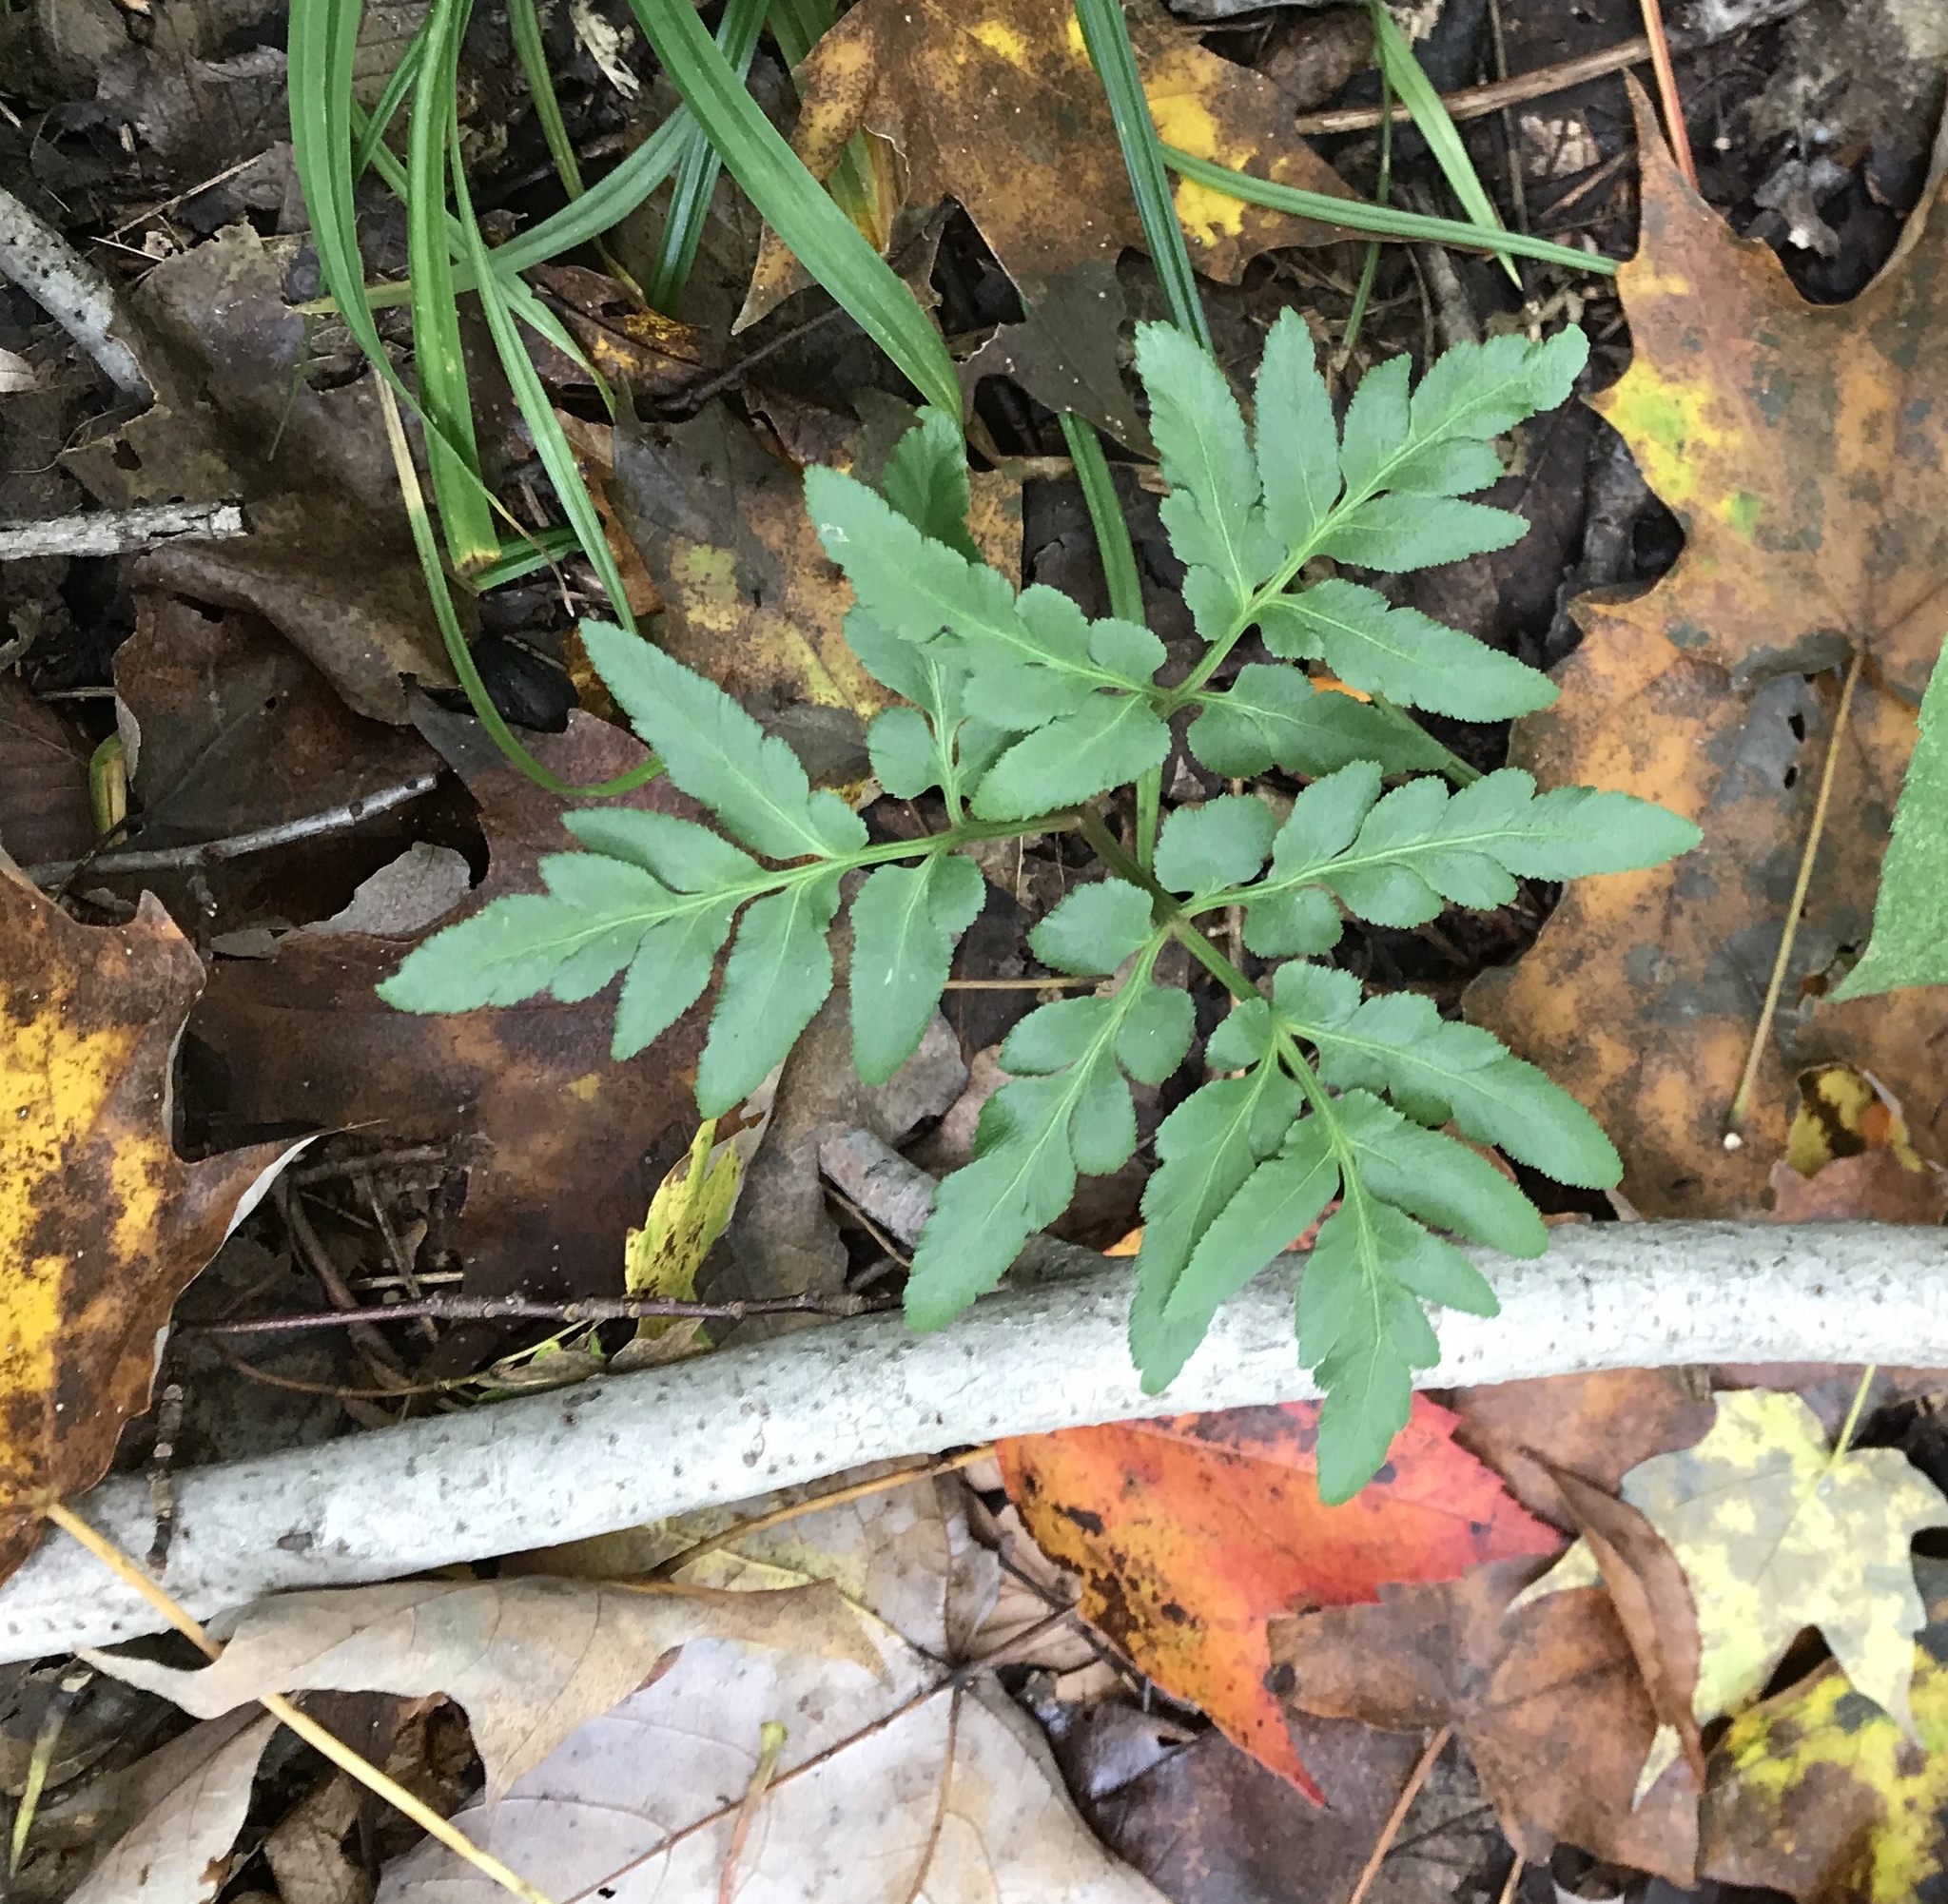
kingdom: Plantae
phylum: Tracheophyta
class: Polypodiopsida
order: Ophioglossales
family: Ophioglossaceae
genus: Sceptridium
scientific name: Sceptridium dissectum
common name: Cut-leaved grapefern
